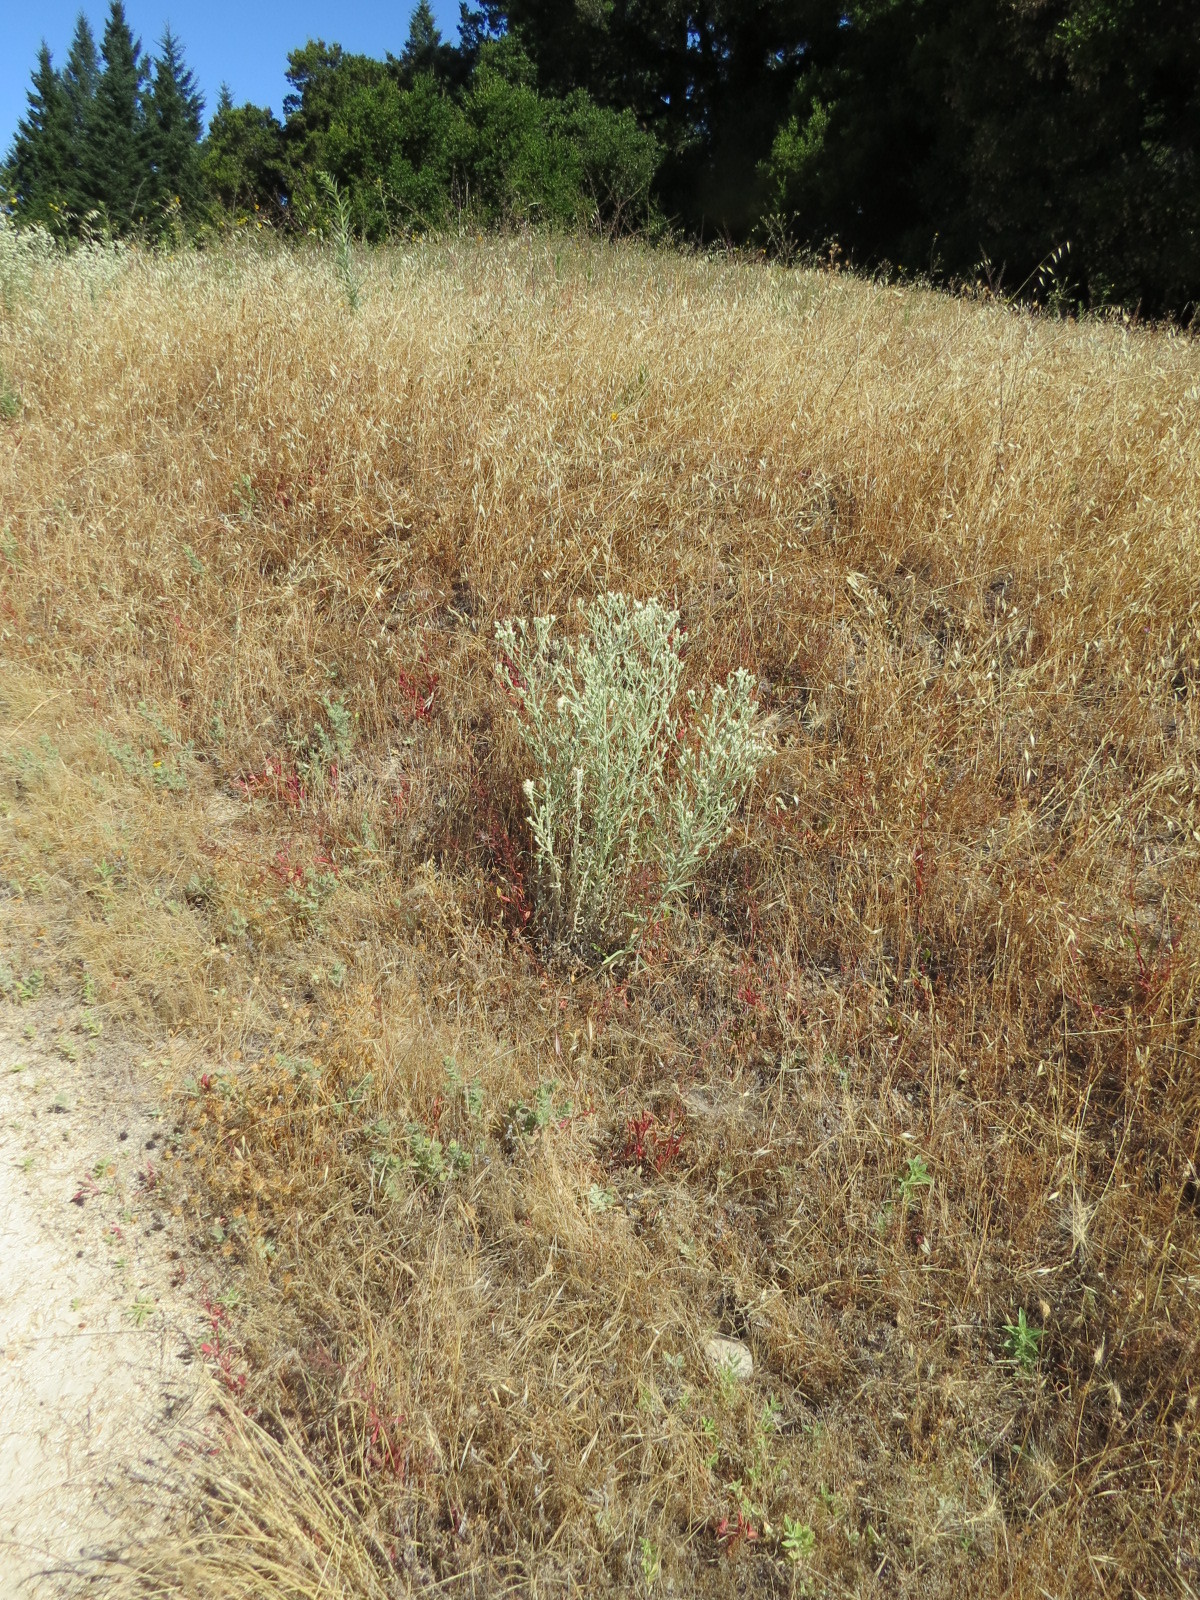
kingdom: Plantae
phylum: Tracheophyta
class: Magnoliopsida
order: Asterales
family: Asteraceae
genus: Pseudognaphalium
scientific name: Pseudognaphalium beneolens
